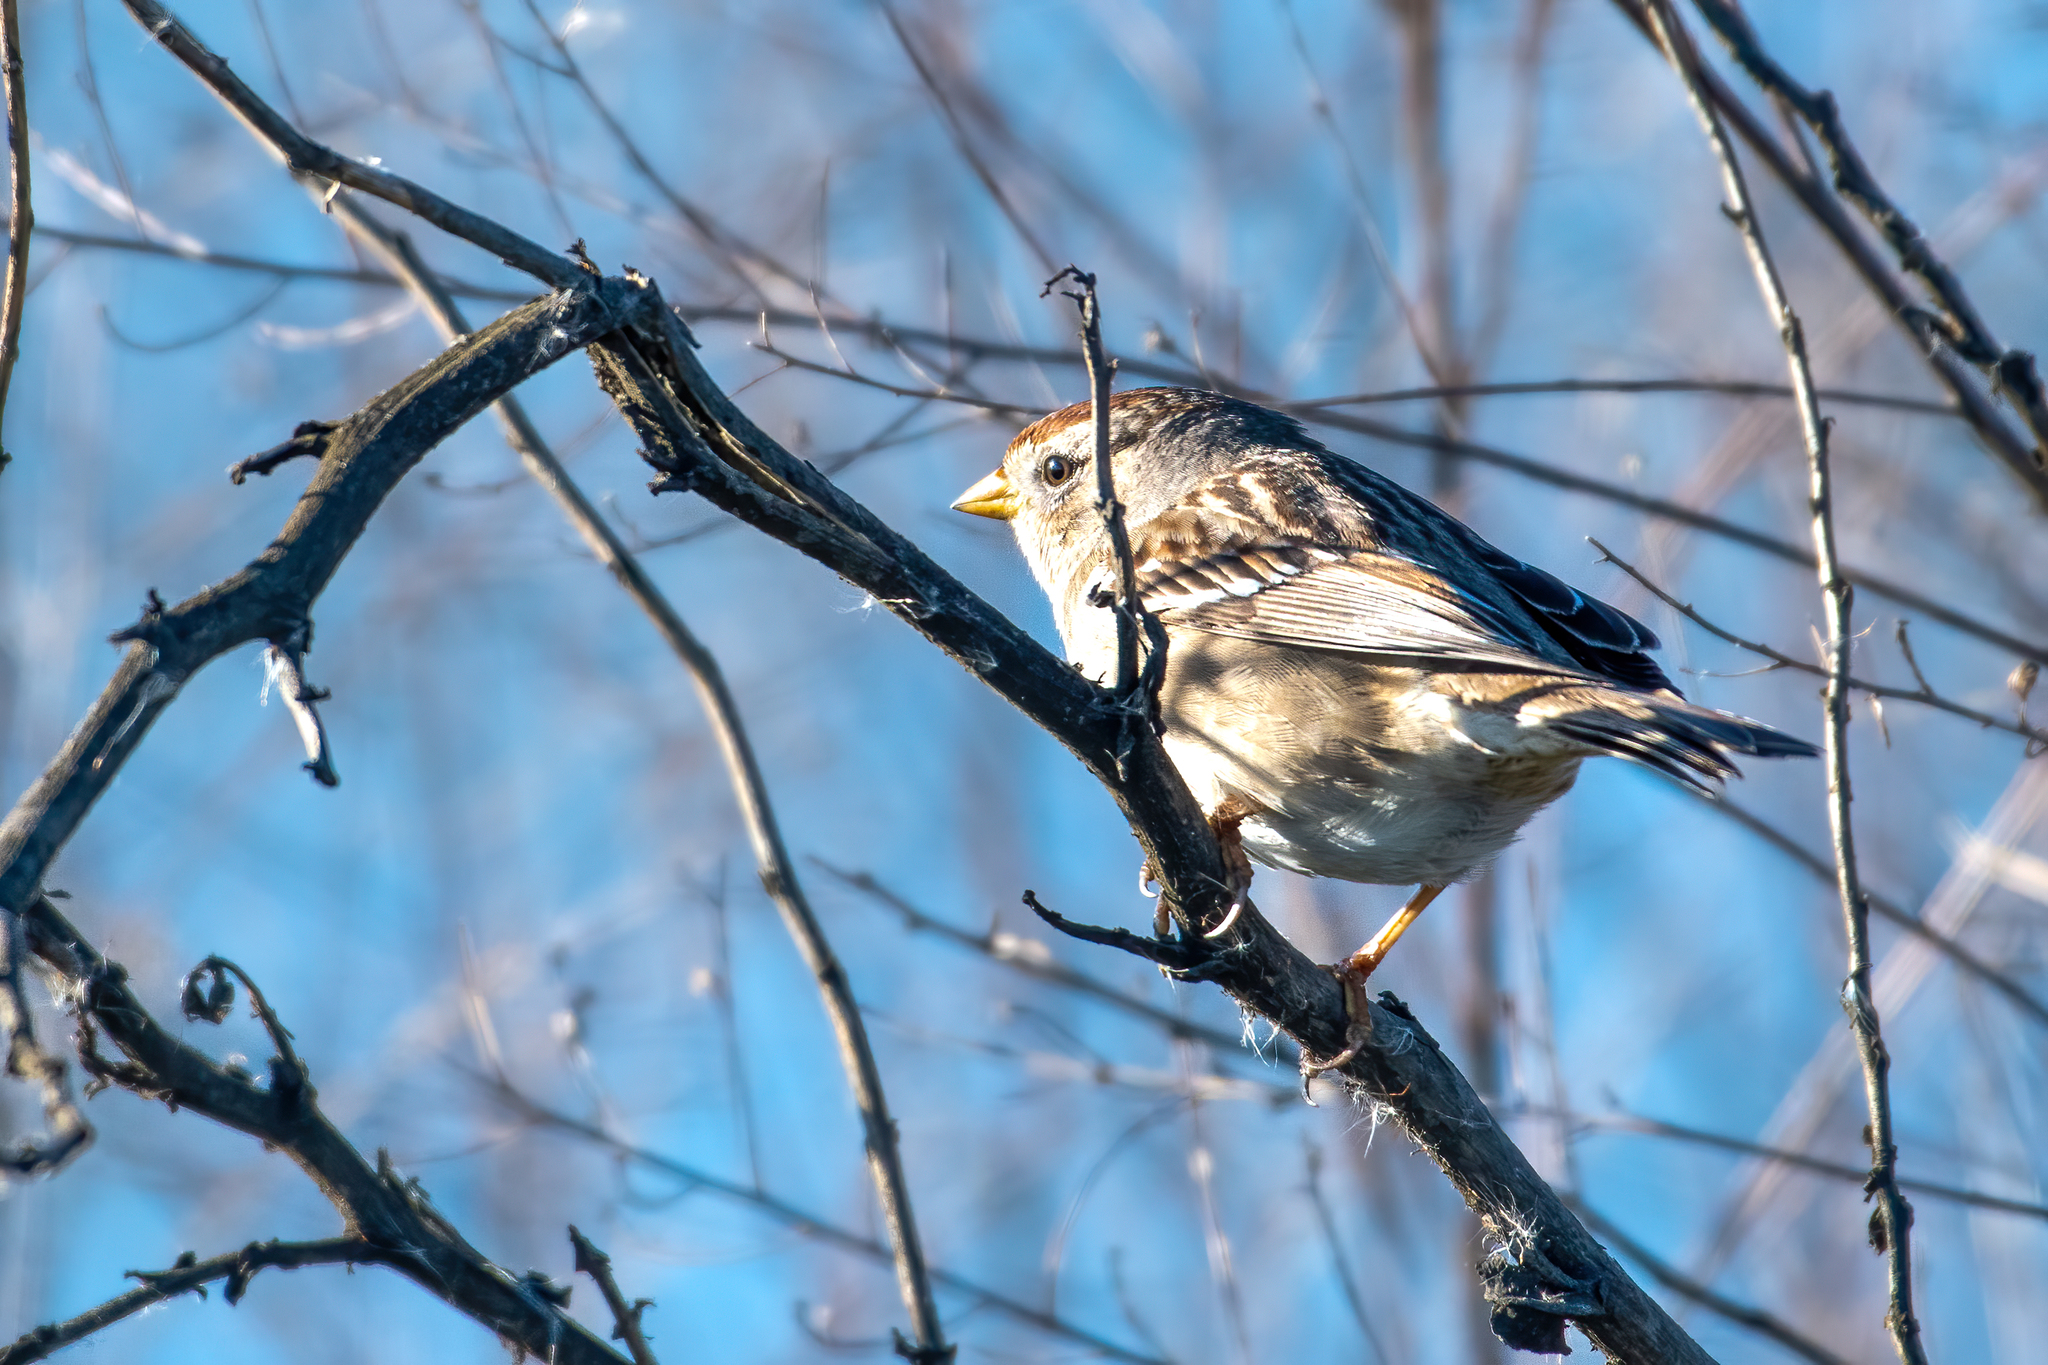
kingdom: Animalia
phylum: Chordata
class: Aves
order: Passeriformes
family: Passerellidae
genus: Zonotrichia
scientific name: Zonotrichia leucophrys
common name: White-crowned sparrow
